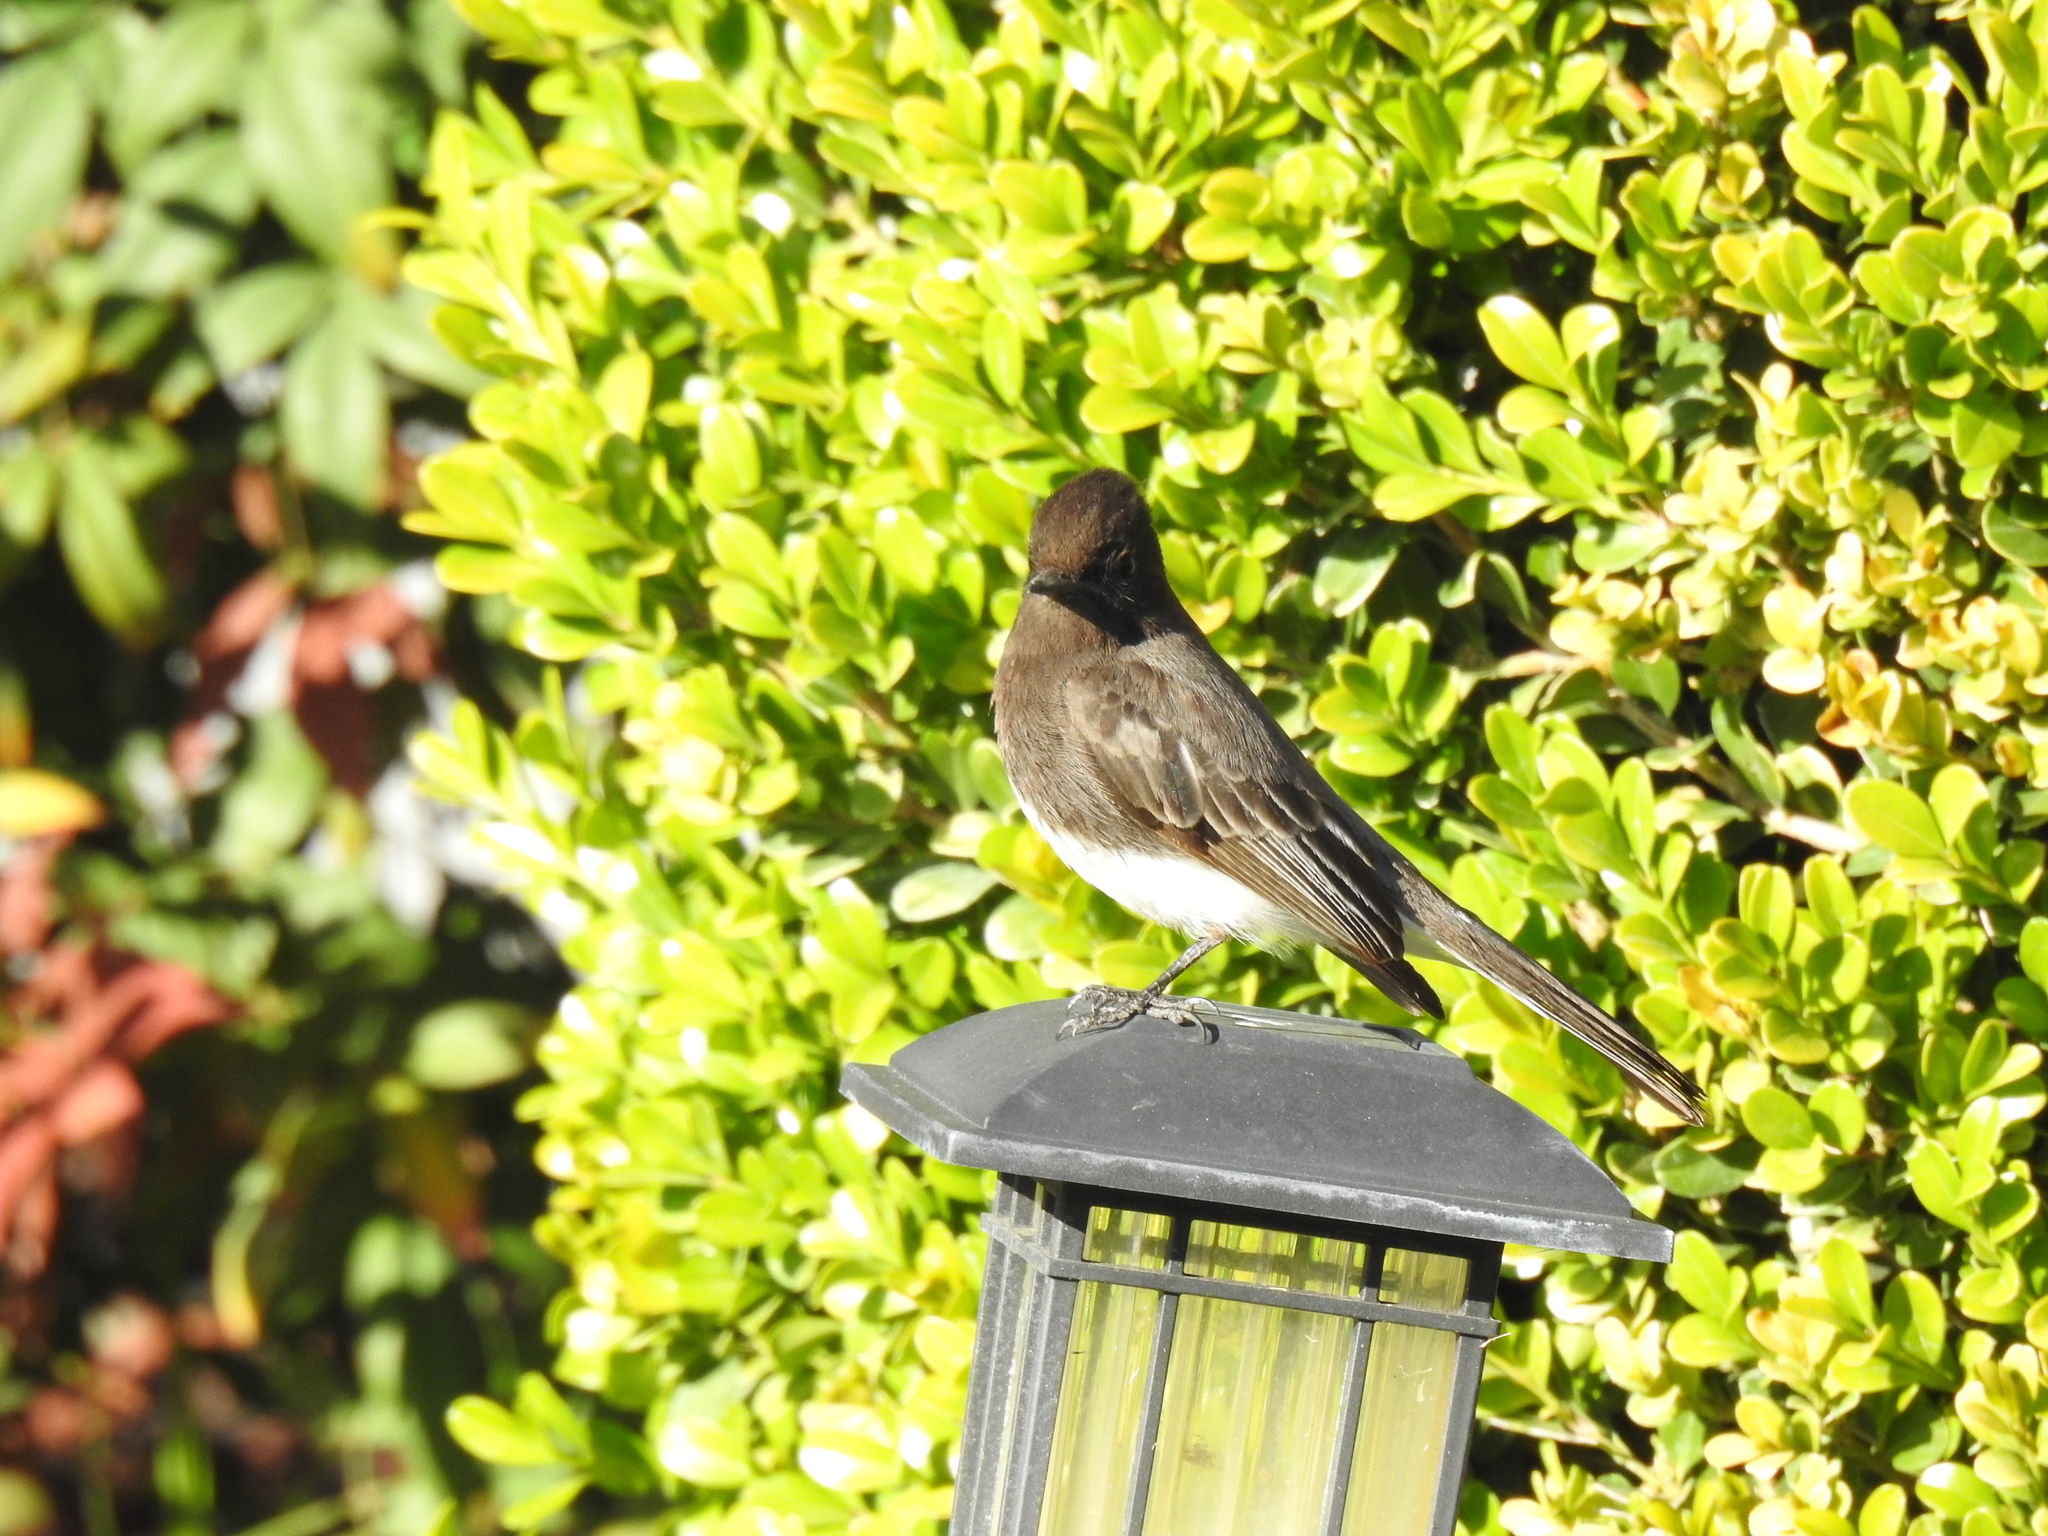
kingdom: Animalia
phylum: Chordata
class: Aves
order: Passeriformes
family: Tyrannidae
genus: Sayornis
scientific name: Sayornis nigricans
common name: Black phoebe
